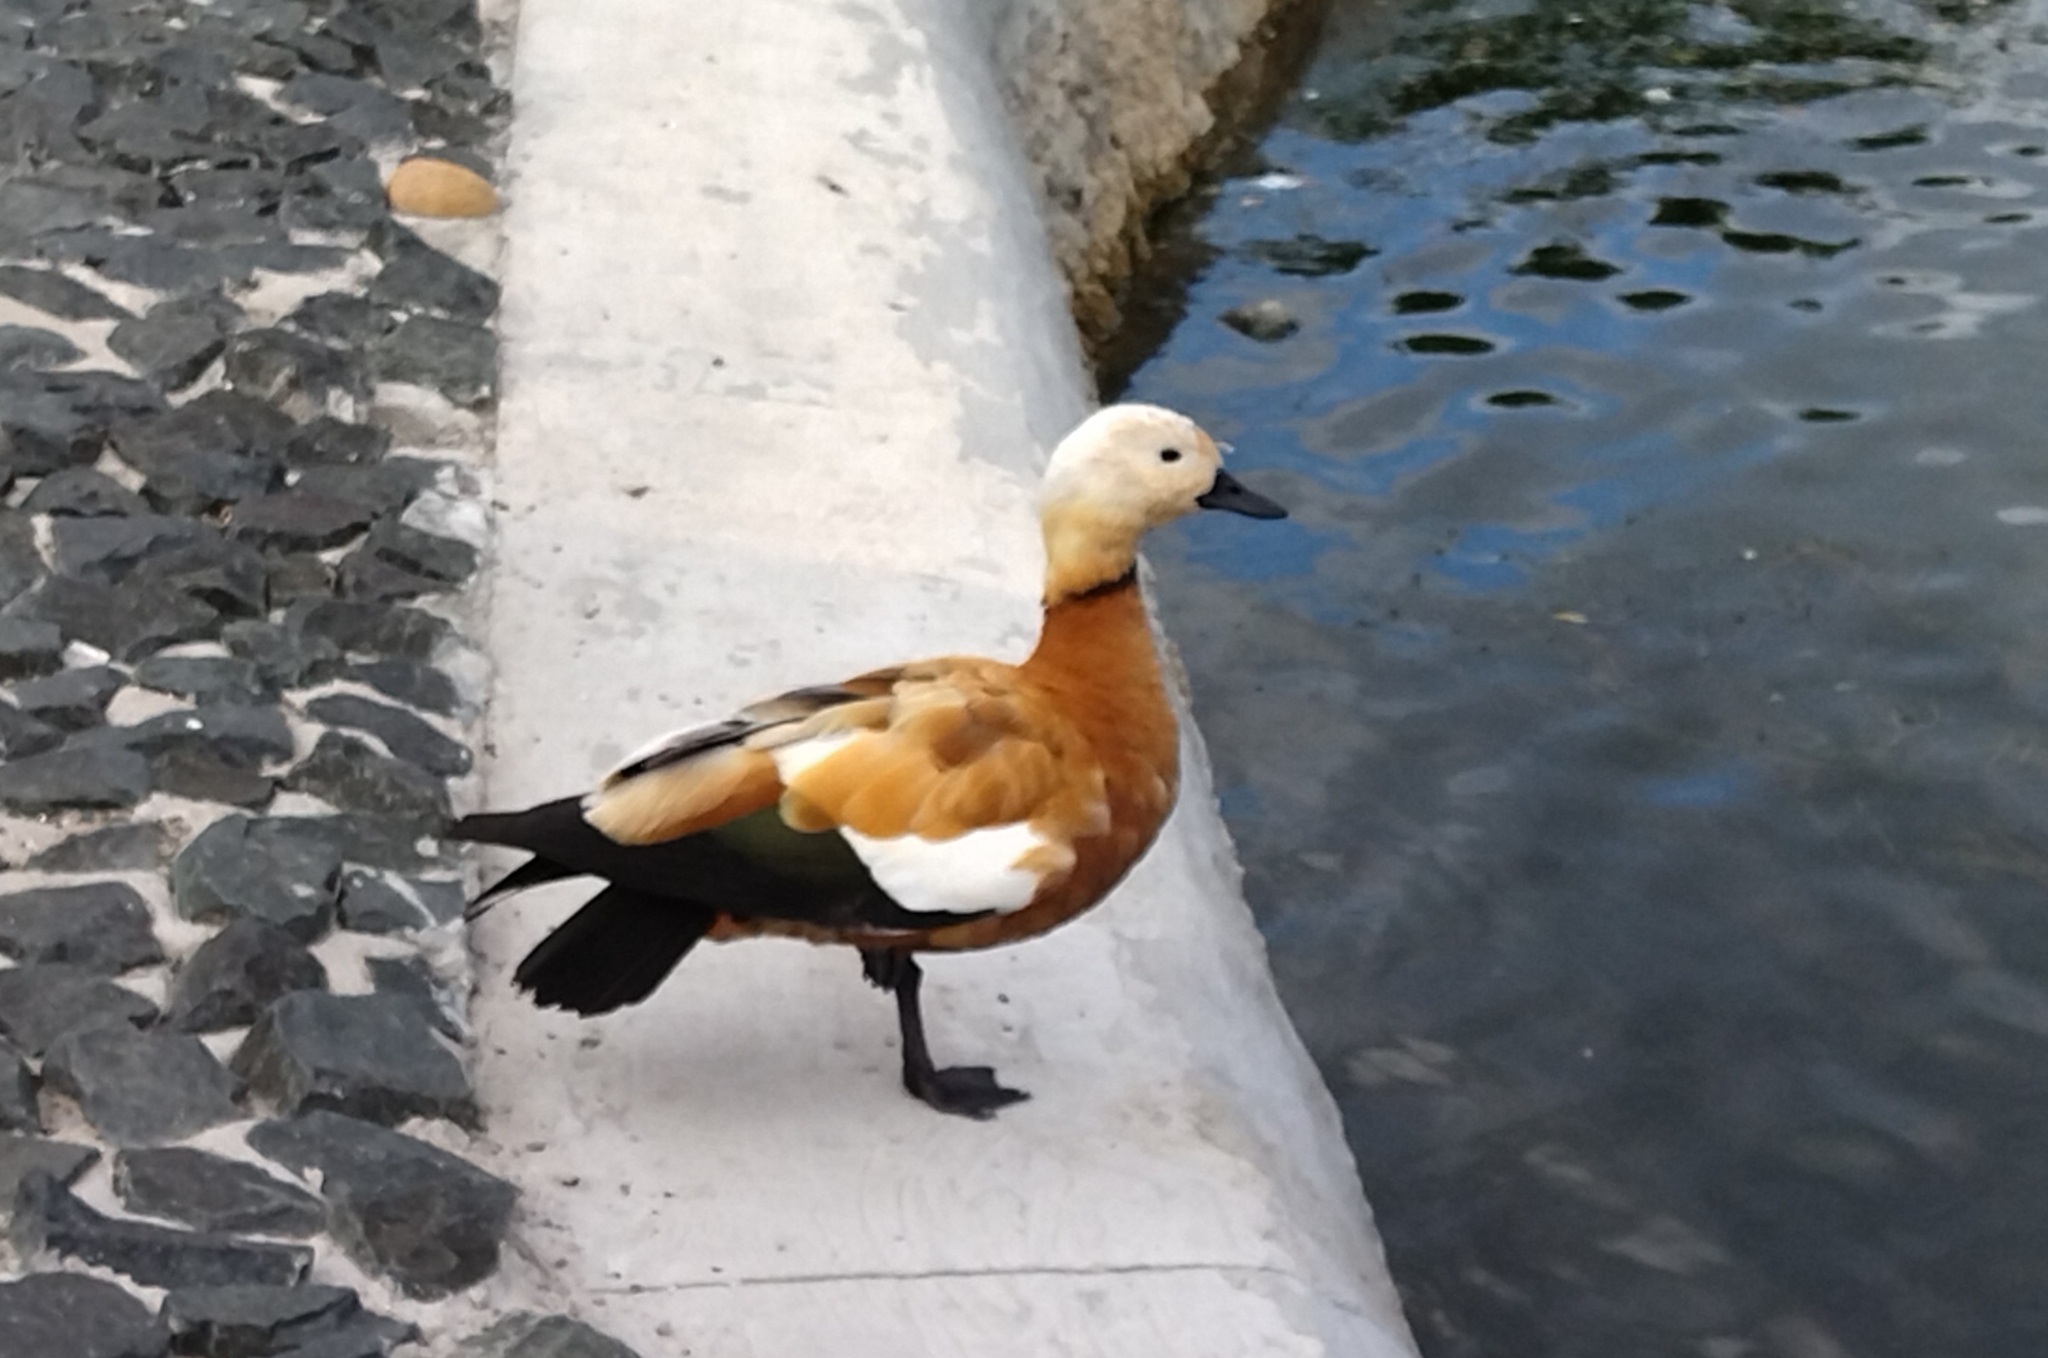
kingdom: Animalia
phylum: Chordata
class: Aves
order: Anseriformes
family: Anatidae
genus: Tadorna
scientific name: Tadorna ferruginea
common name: Ruddy shelduck
